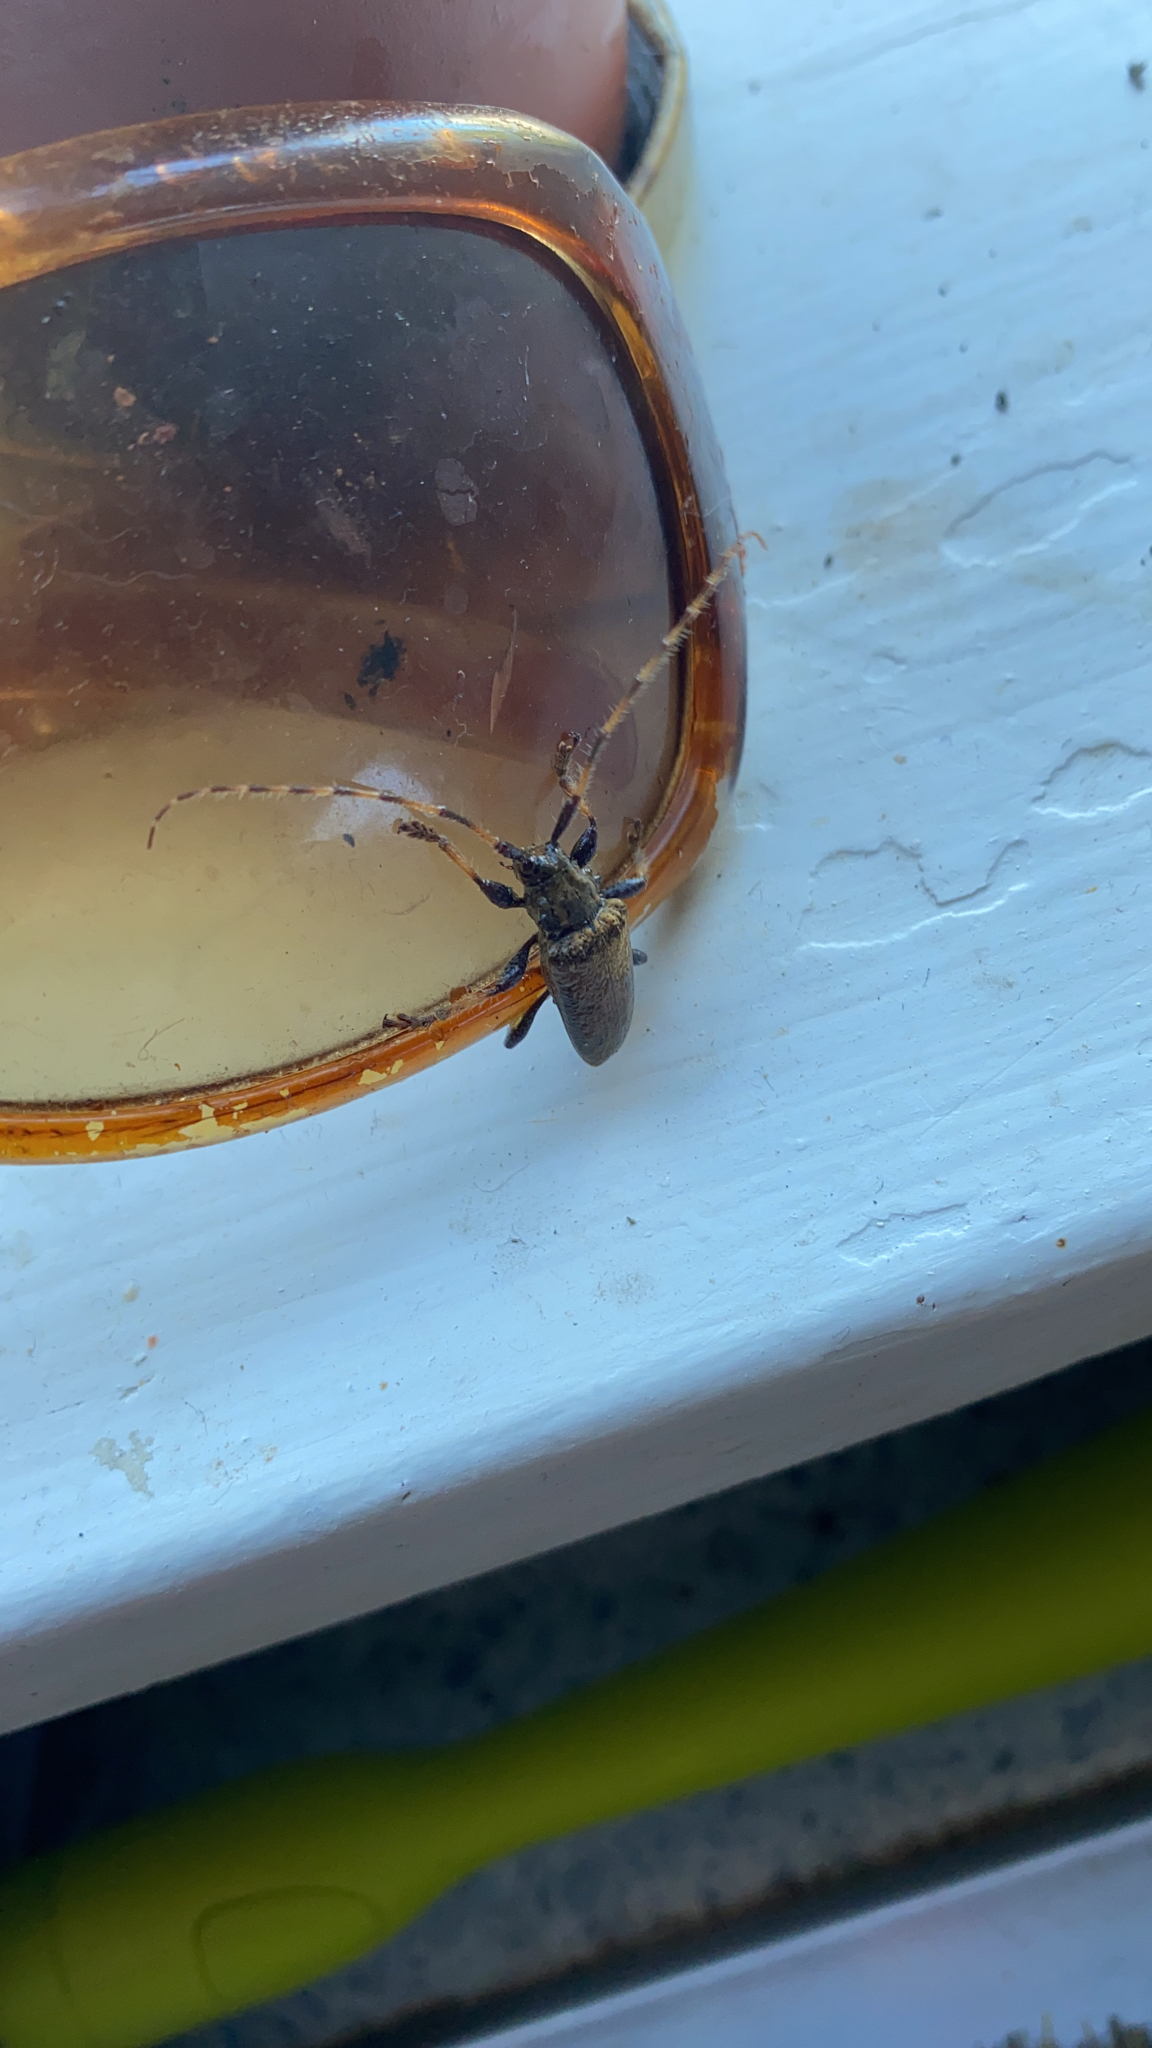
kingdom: Animalia
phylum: Arthropoda
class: Insecta
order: Coleoptera
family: Cerambycidae
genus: Polyacanthia
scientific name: Polyacanthia flavipes
